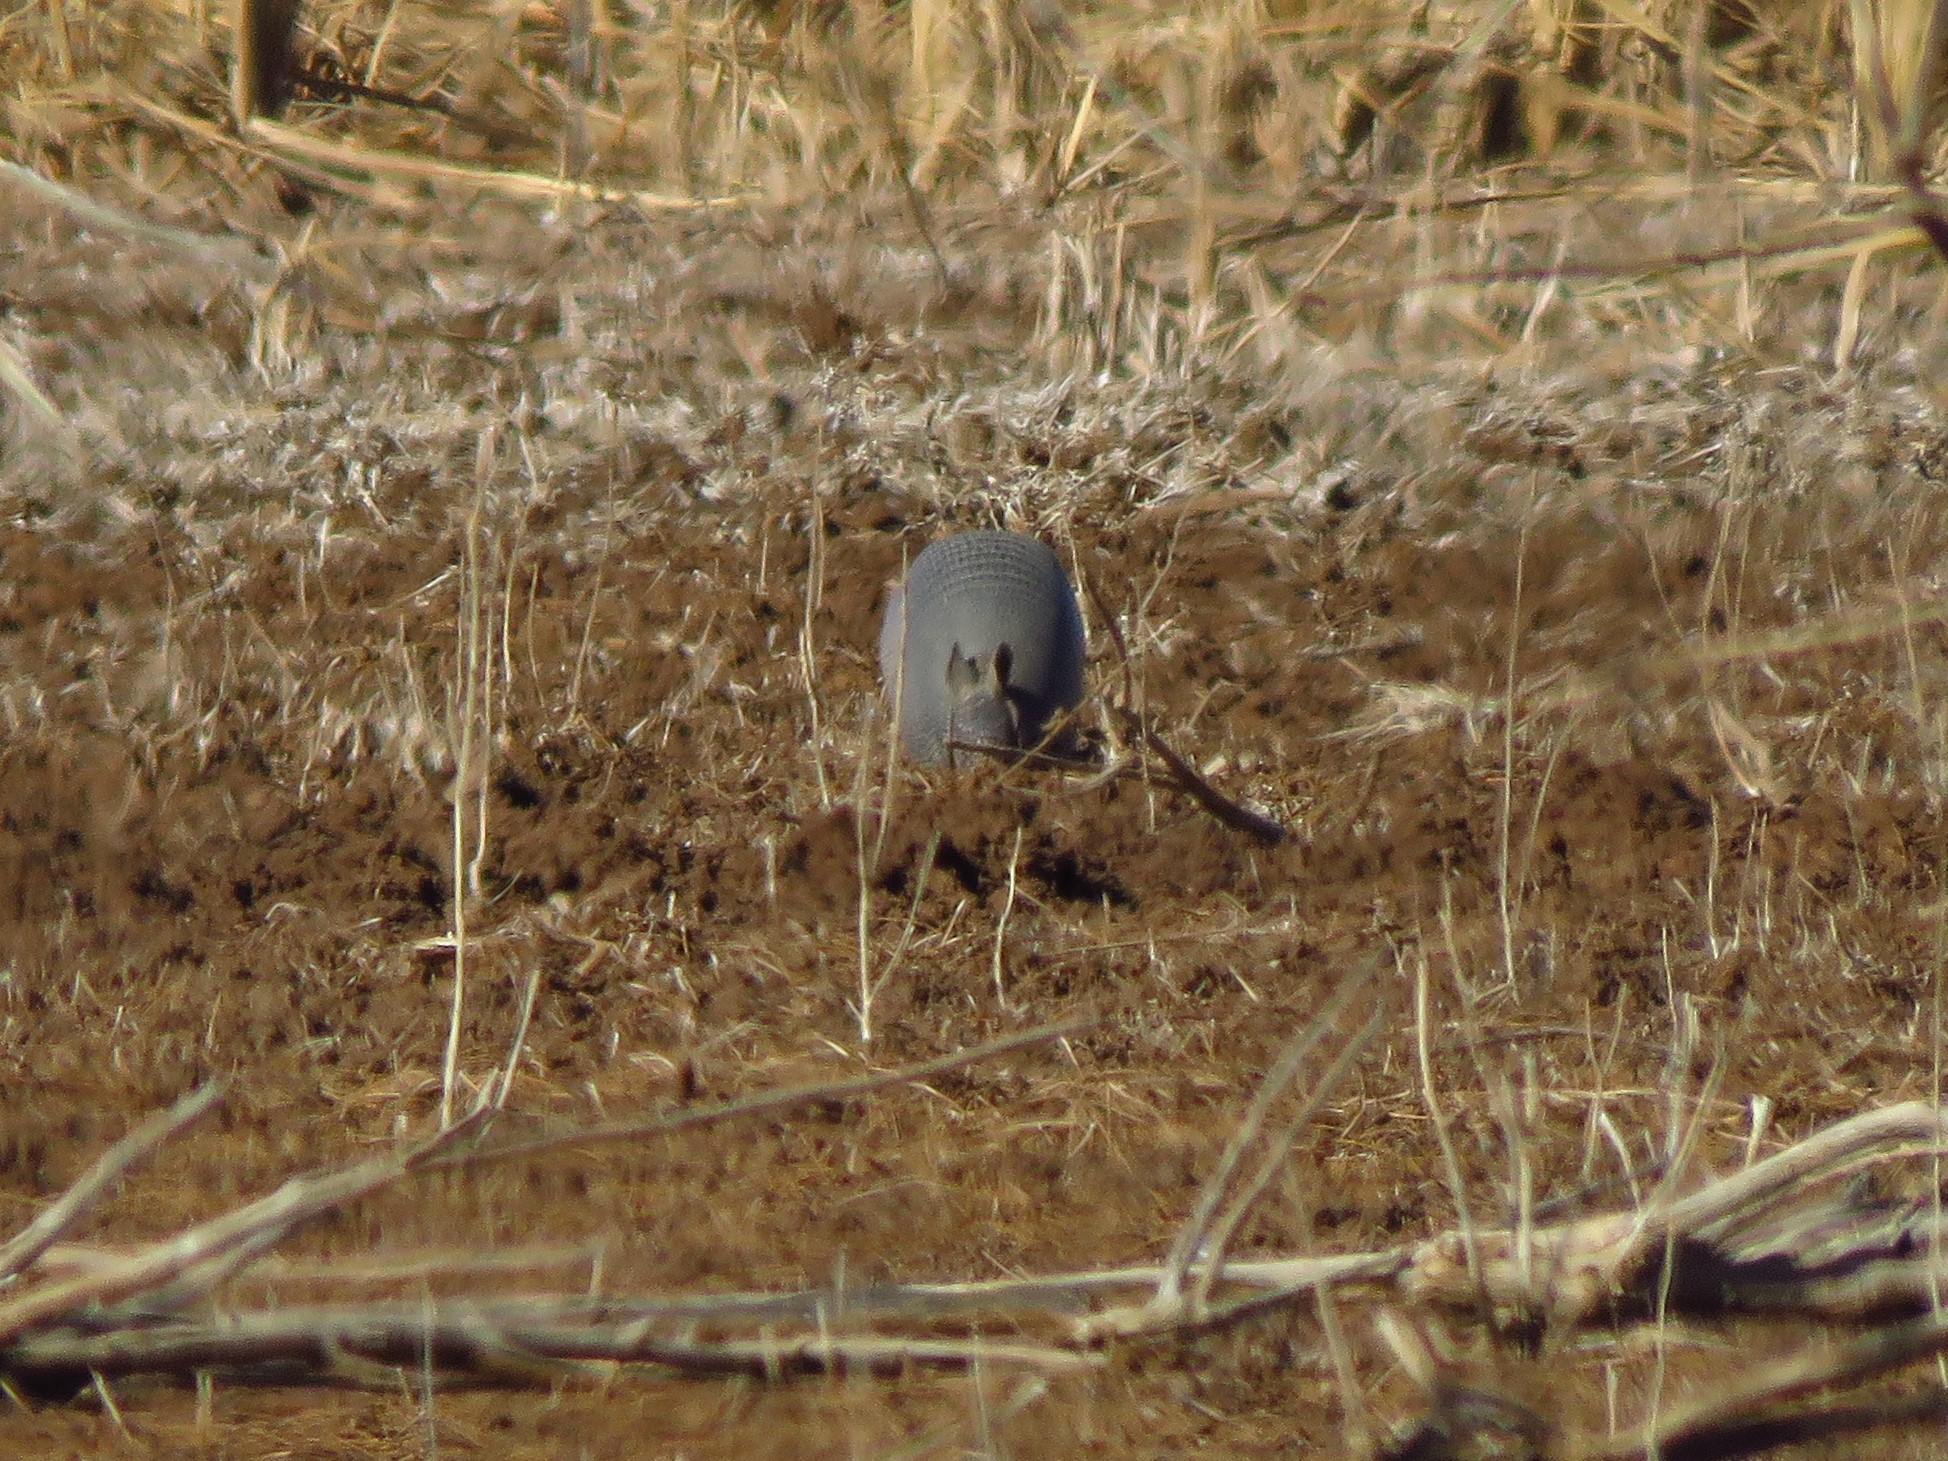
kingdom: Animalia
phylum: Chordata
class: Mammalia
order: Cingulata
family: Dasypodidae
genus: Dasypus
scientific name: Dasypus novemcinctus
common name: Nine-banded armadillo
